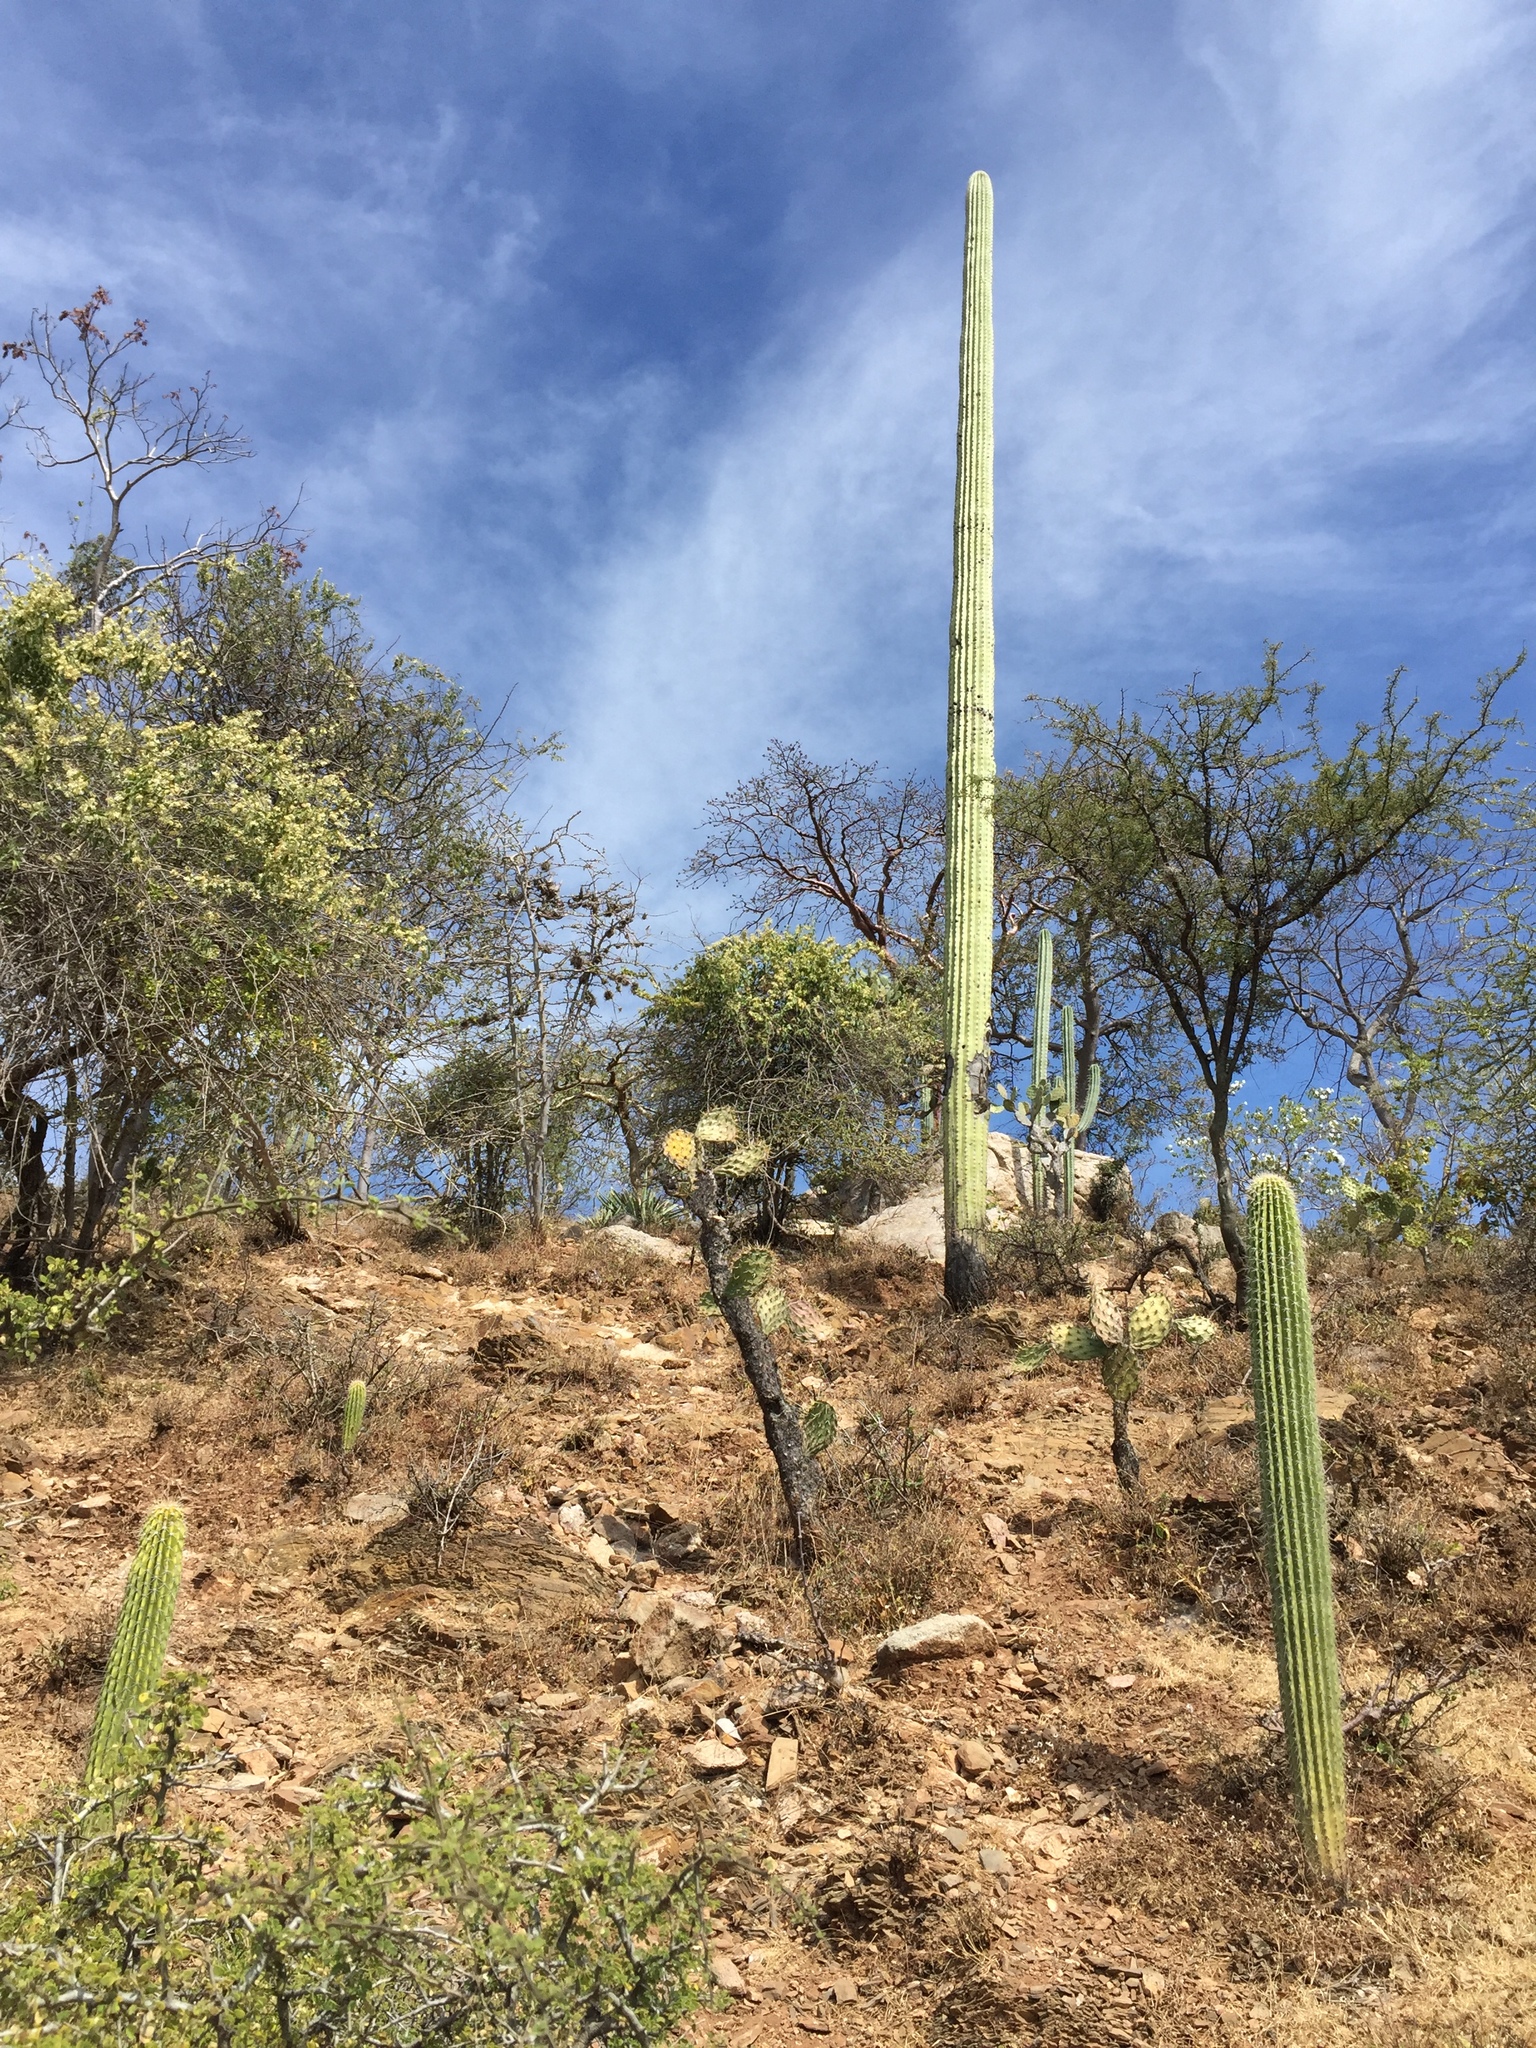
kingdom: Plantae
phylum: Tracheophyta
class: Magnoliopsida
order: Caryophyllales
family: Cactaceae
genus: Cephalocereus
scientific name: Cephalocereus mezcalaensis
